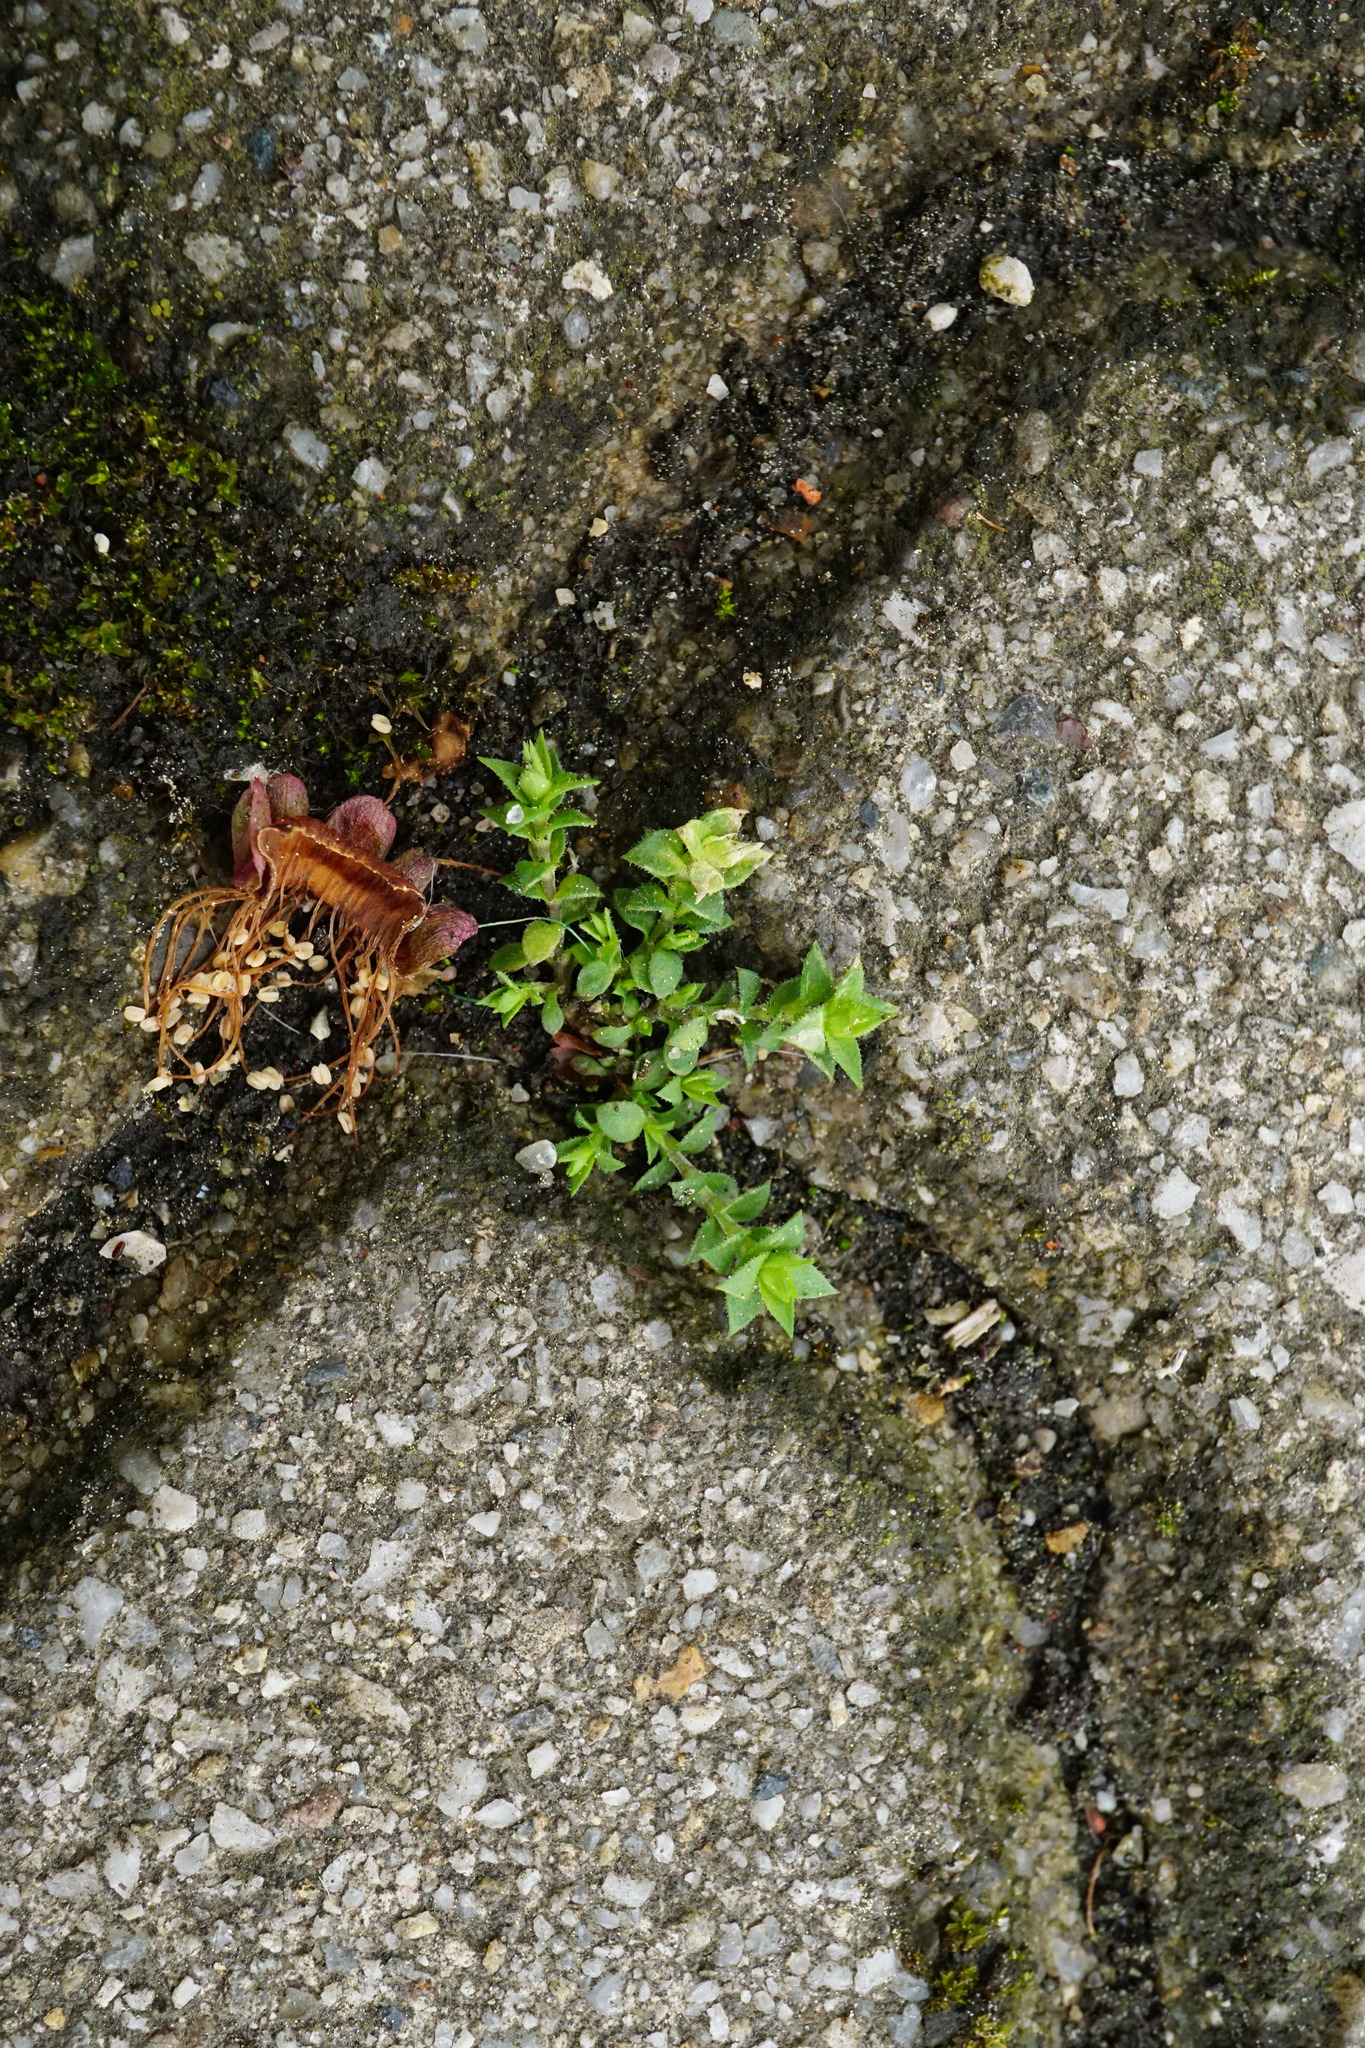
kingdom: Plantae
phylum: Tracheophyta
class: Magnoliopsida
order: Caryophyllales
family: Caryophyllaceae
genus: Arenaria
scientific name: Arenaria serpyllifolia
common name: Thyme-leaved sandwort
